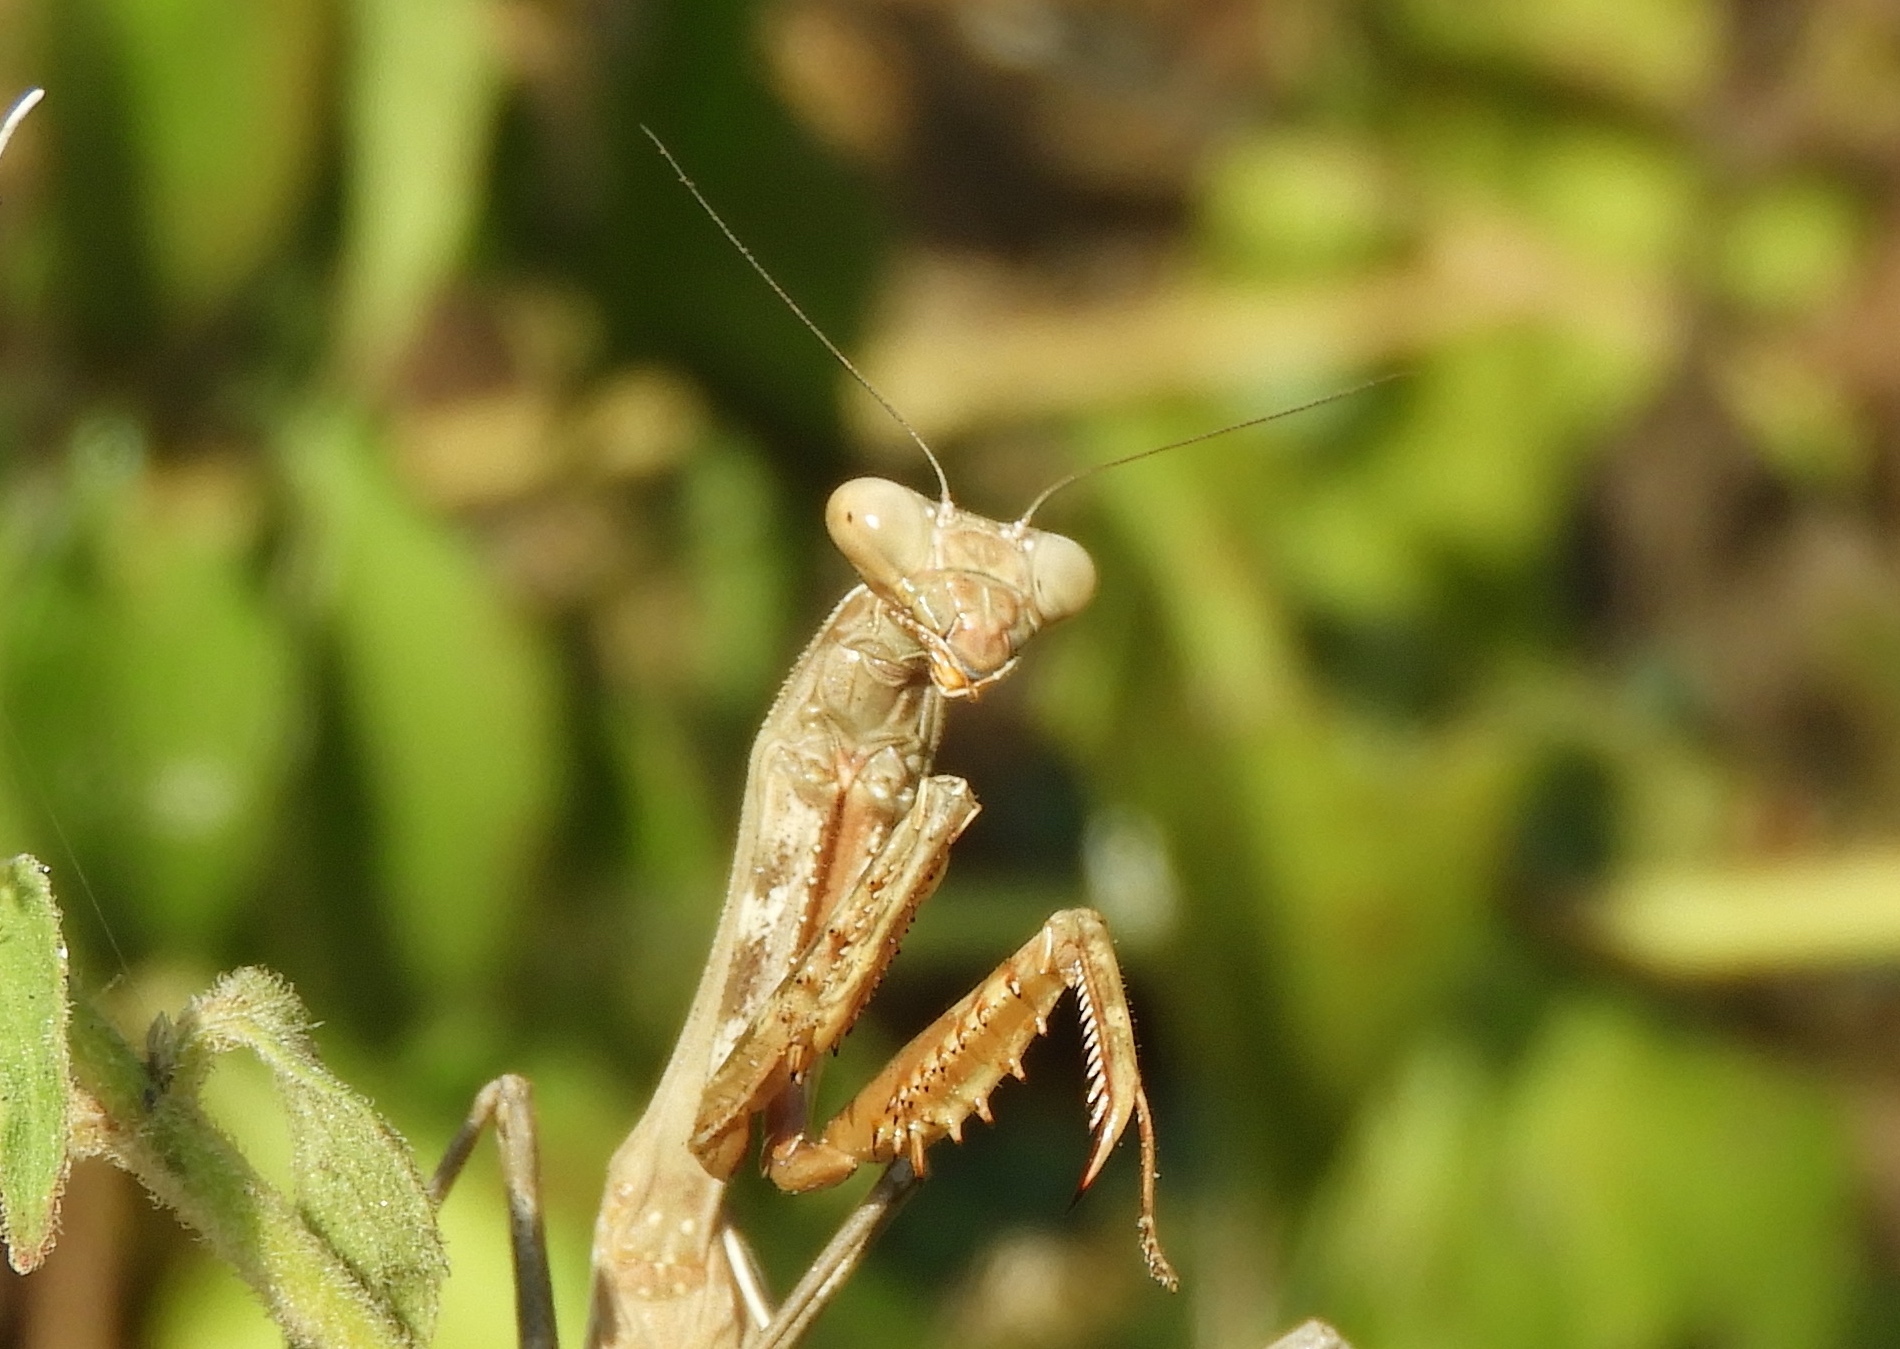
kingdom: Animalia
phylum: Arthropoda
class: Insecta
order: Mantodea
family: Mantidae
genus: Stagmomantis
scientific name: Stagmomantis limbata
